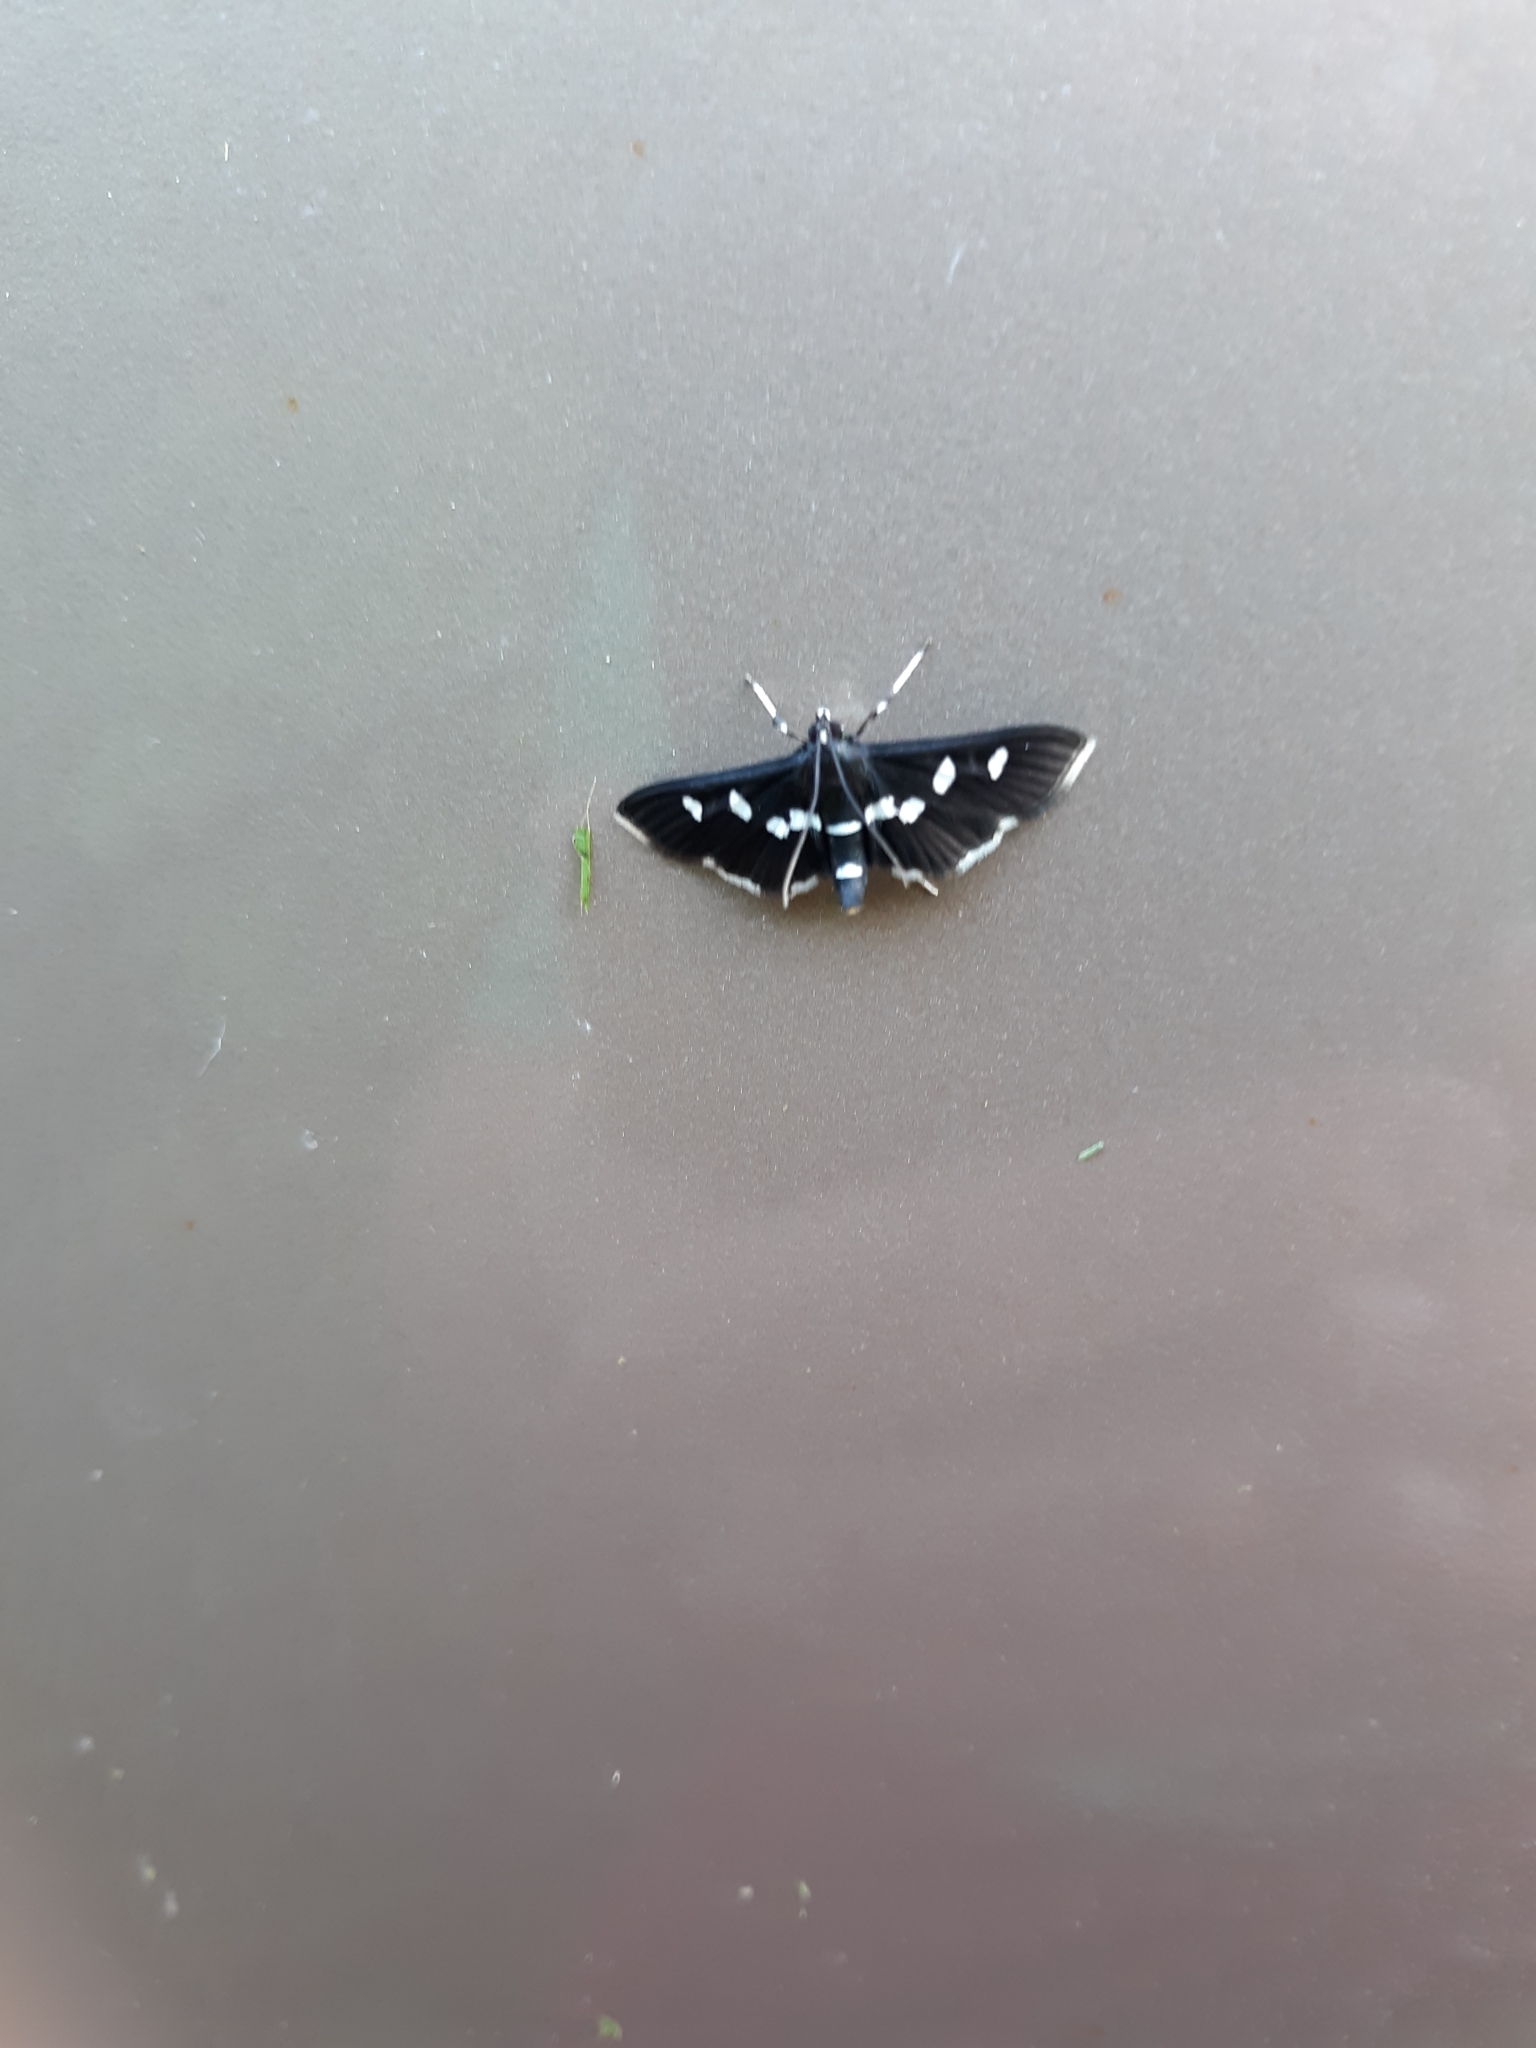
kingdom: Animalia
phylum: Arthropoda
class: Insecta
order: Lepidoptera
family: Crambidae
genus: Desmia
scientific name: Desmia
